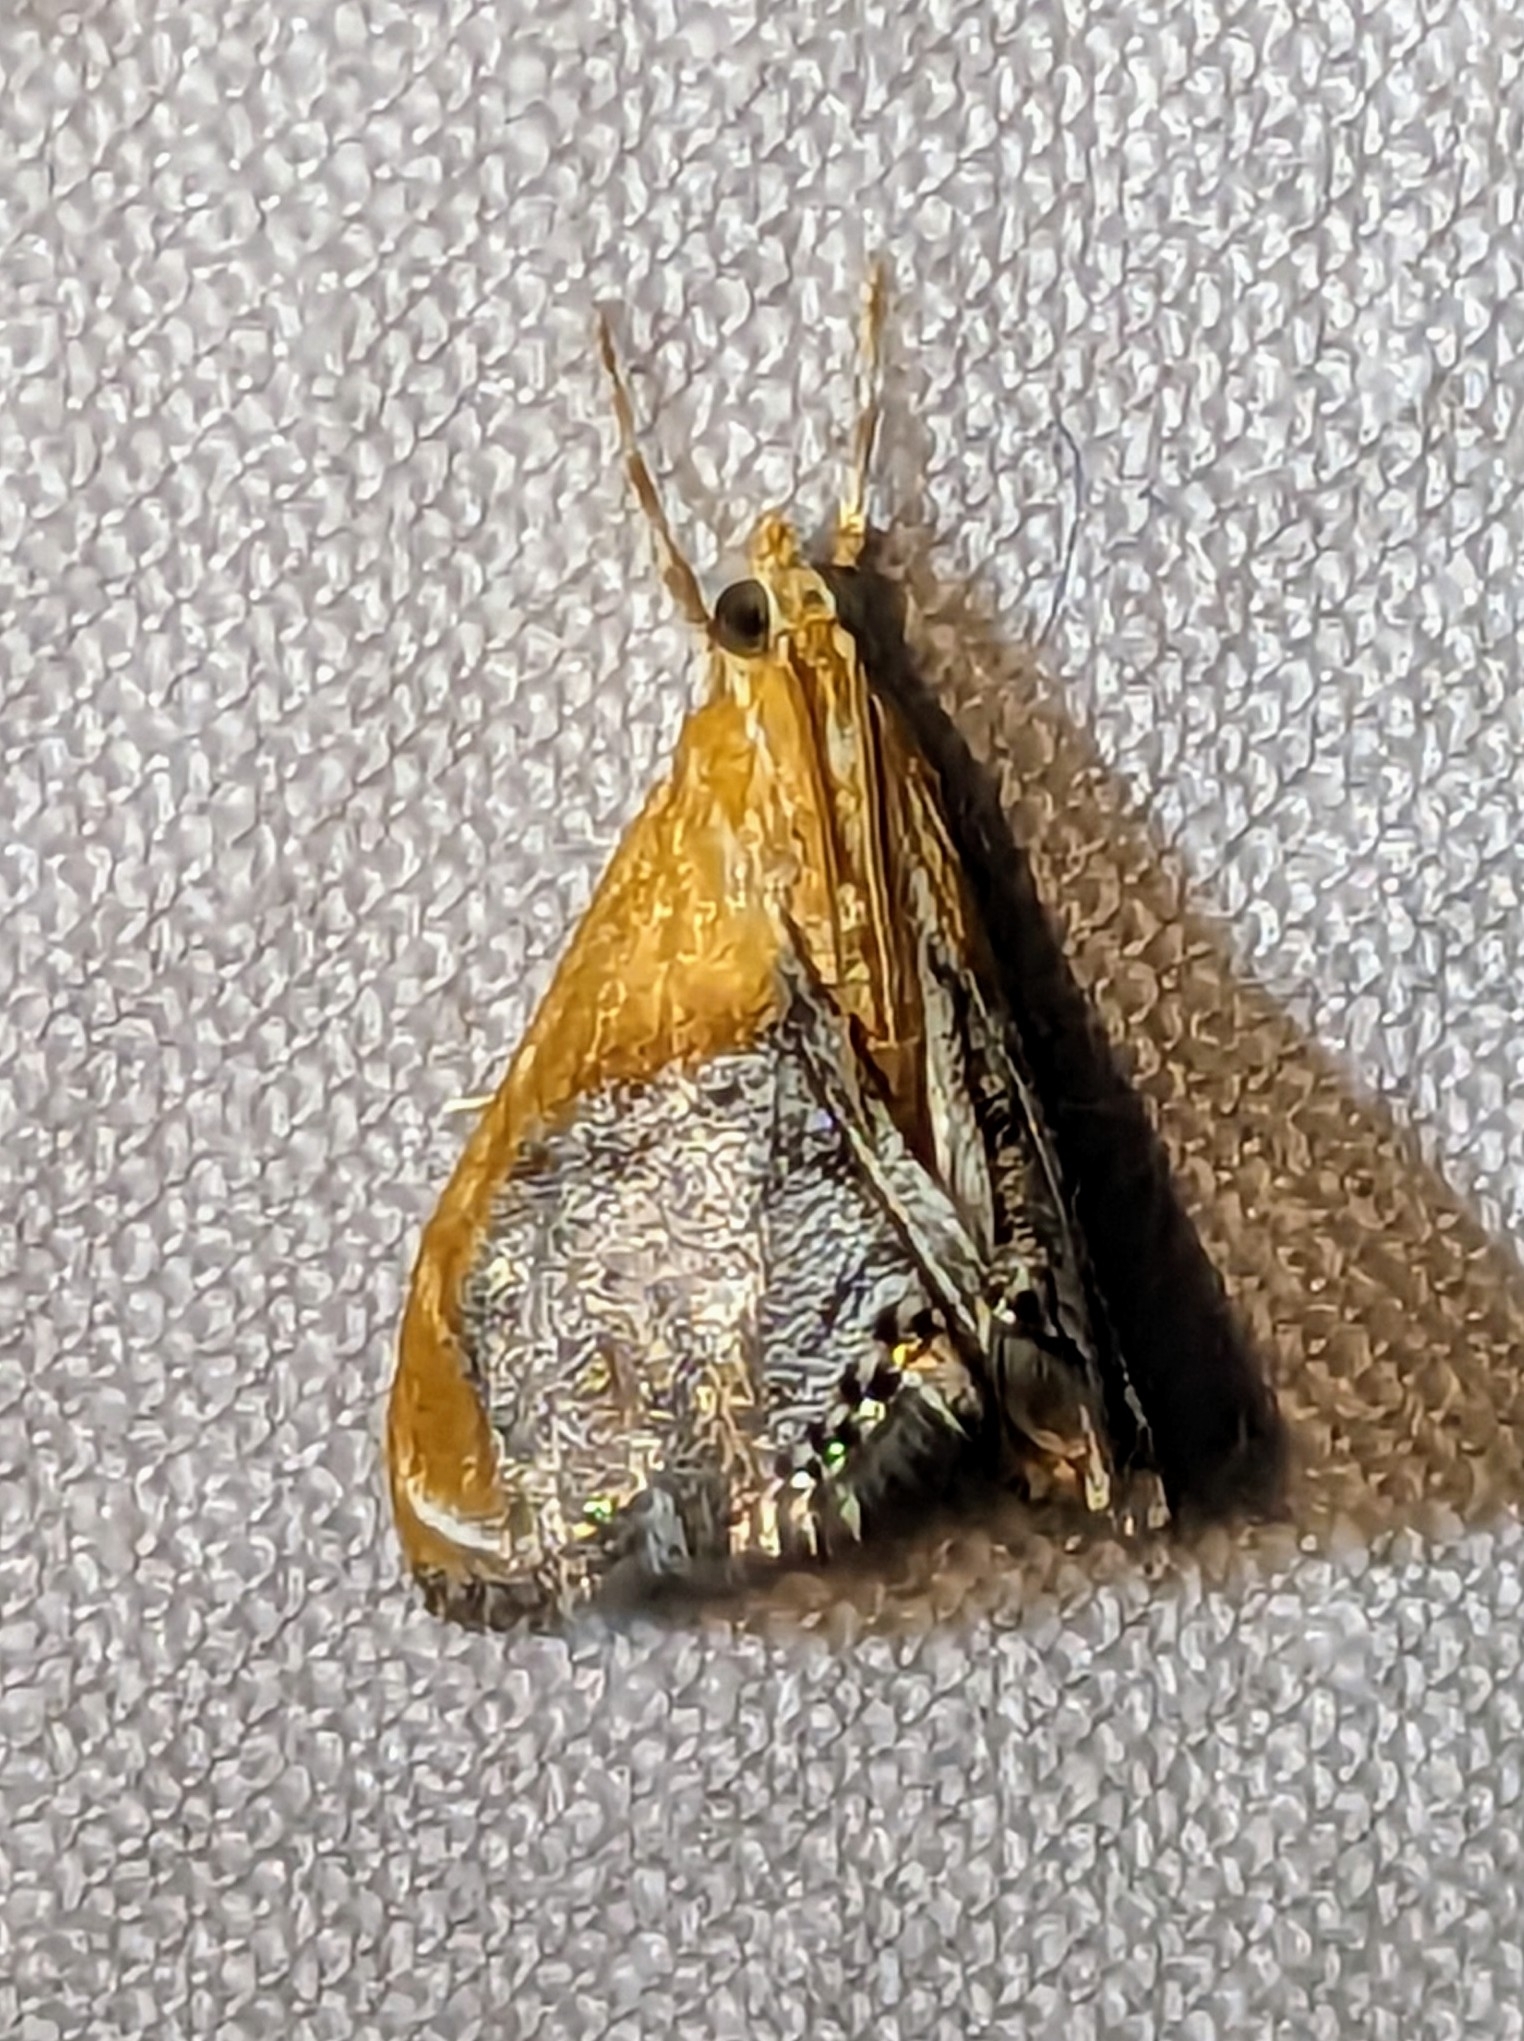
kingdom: Animalia
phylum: Arthropoda
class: Insecta
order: Lepidoptera
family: Crambidae
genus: Chalcoela
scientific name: Chalcoela iphitalis
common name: Sooty-winged chalcoela moth
